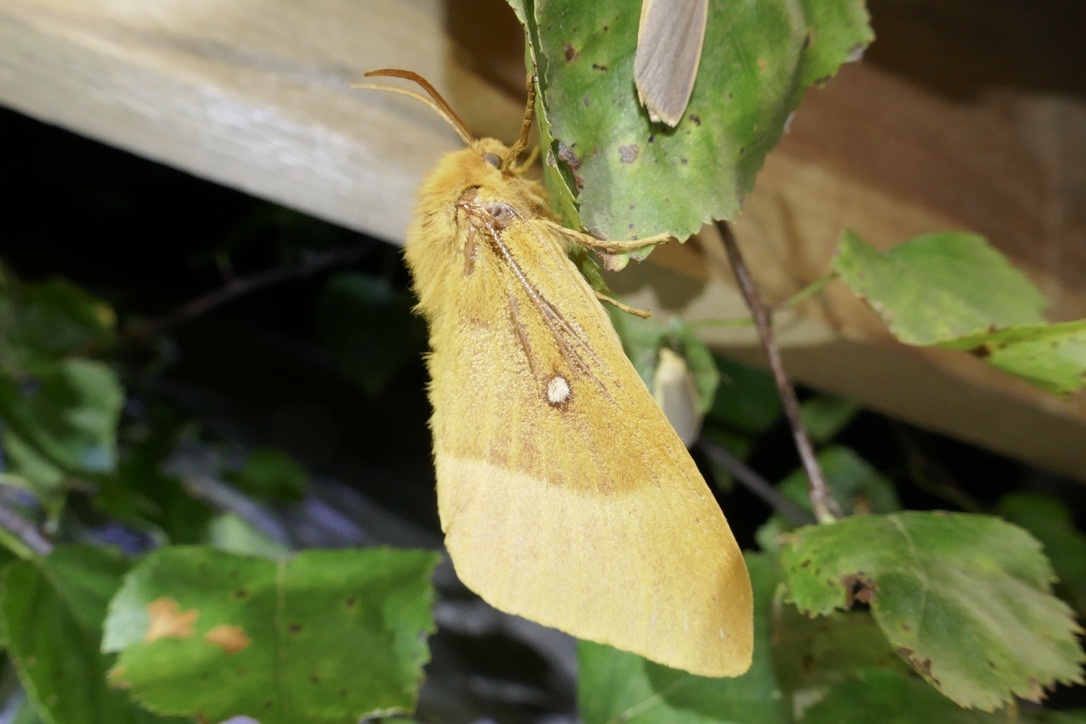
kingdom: Animalia
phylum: Arthropoda
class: Insecta
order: Lepidoptera
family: Lasiocampidae
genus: Lasiocampa
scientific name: Lasiocampa quercus
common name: Oak eggar
